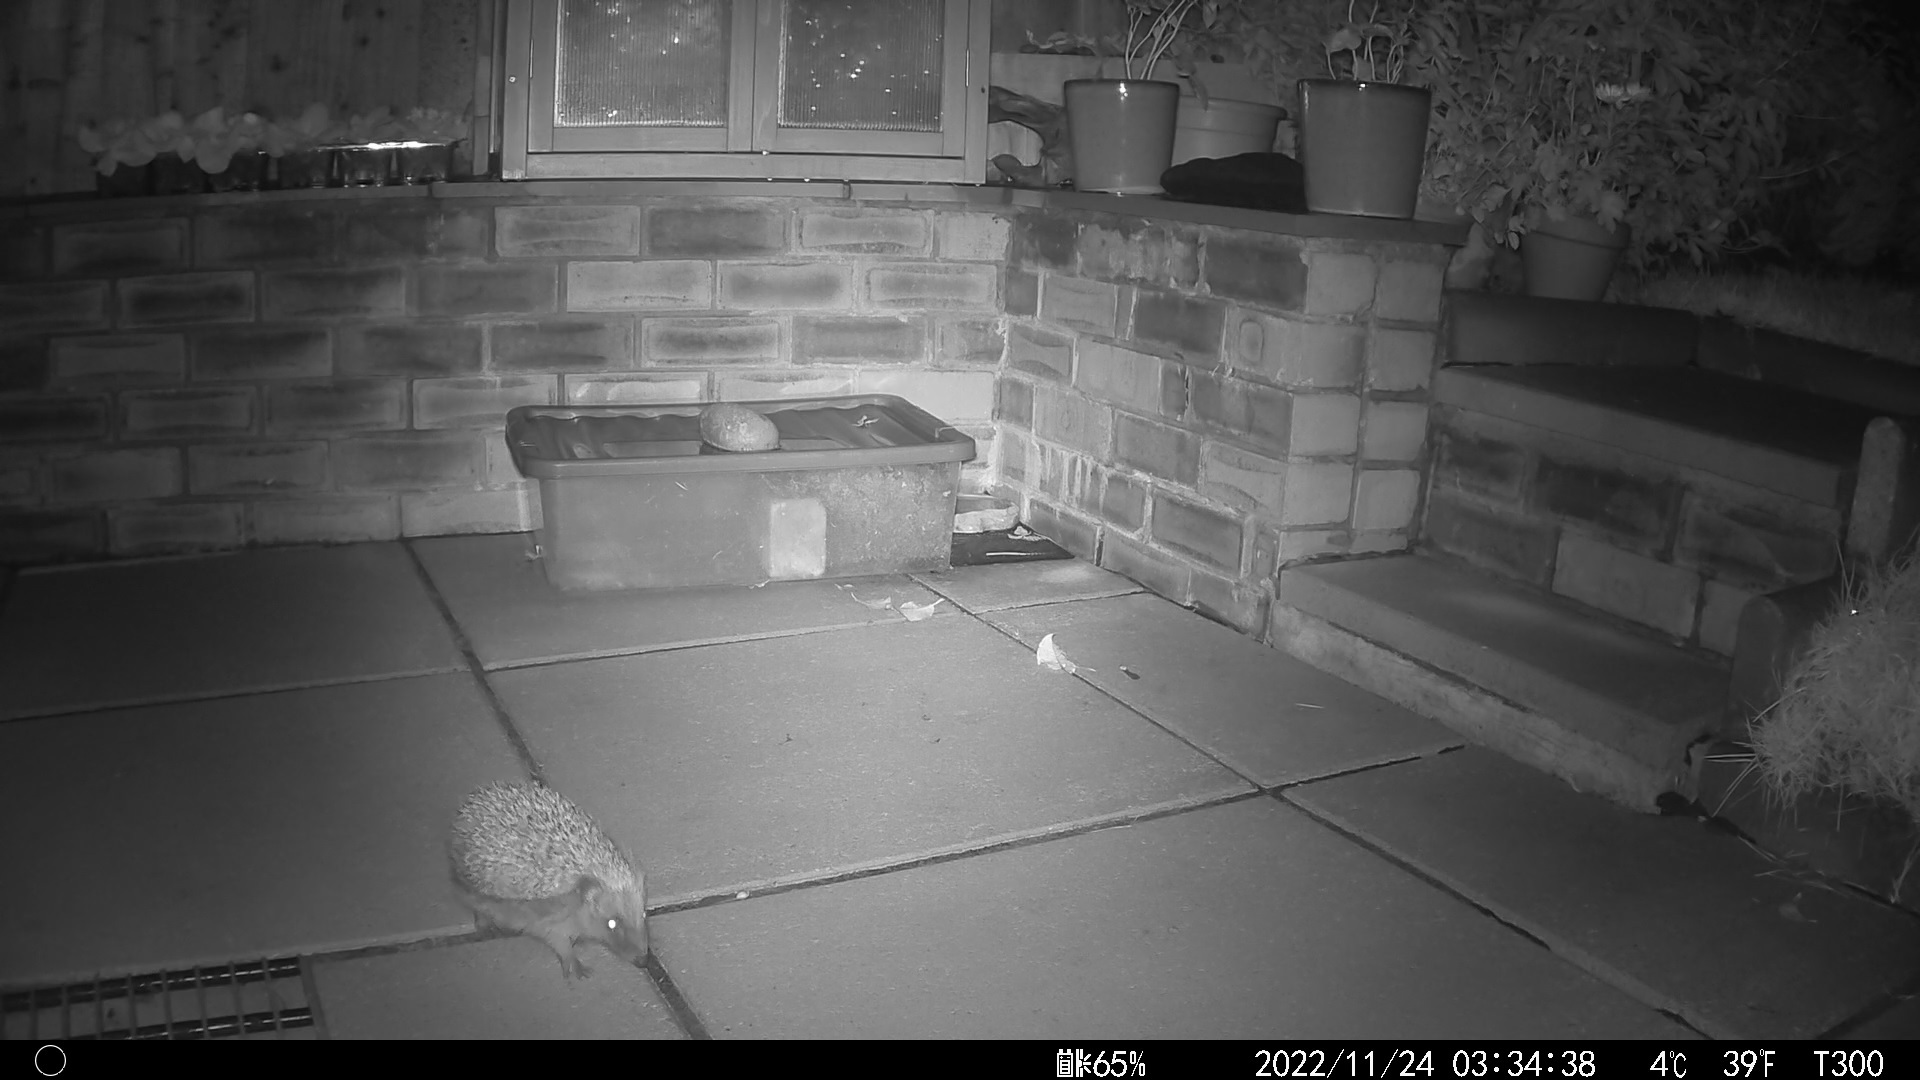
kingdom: Animalia
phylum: Chordata
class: Mammalia
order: Erinaceomorpha
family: Erinaceidae
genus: Erinaceus
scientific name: Erinaceus europaeus
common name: West european hedgehog
